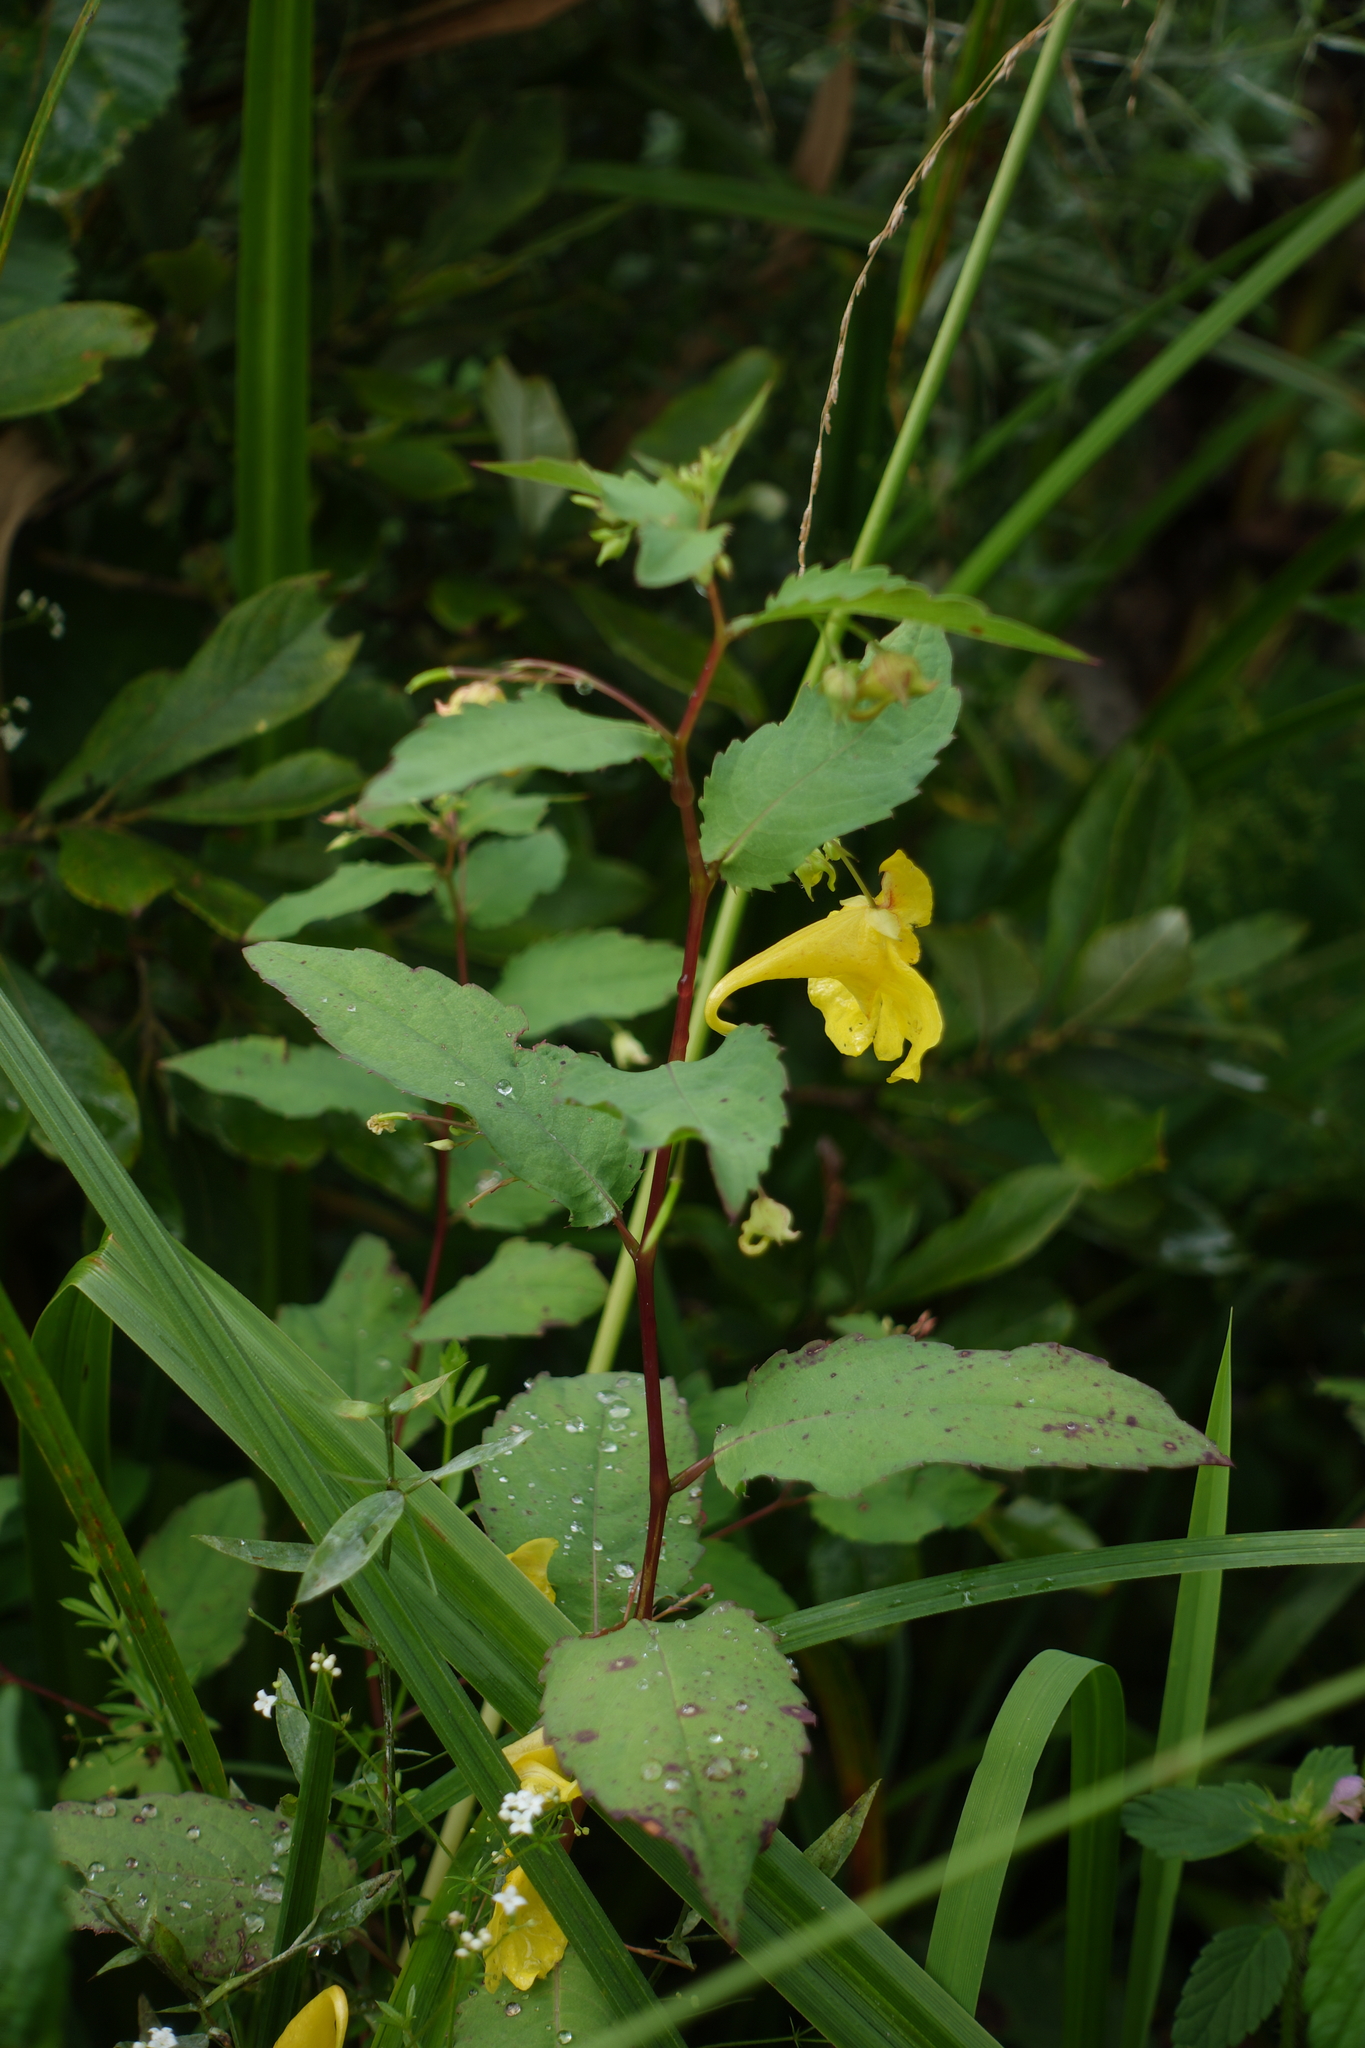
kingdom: Plantae
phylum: Tracheophyta
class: Magnoliopsida
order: Ericales
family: Balsaminaceae
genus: Impatiens
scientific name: Impatiens noli-tangere
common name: Touch-me-not balsam
